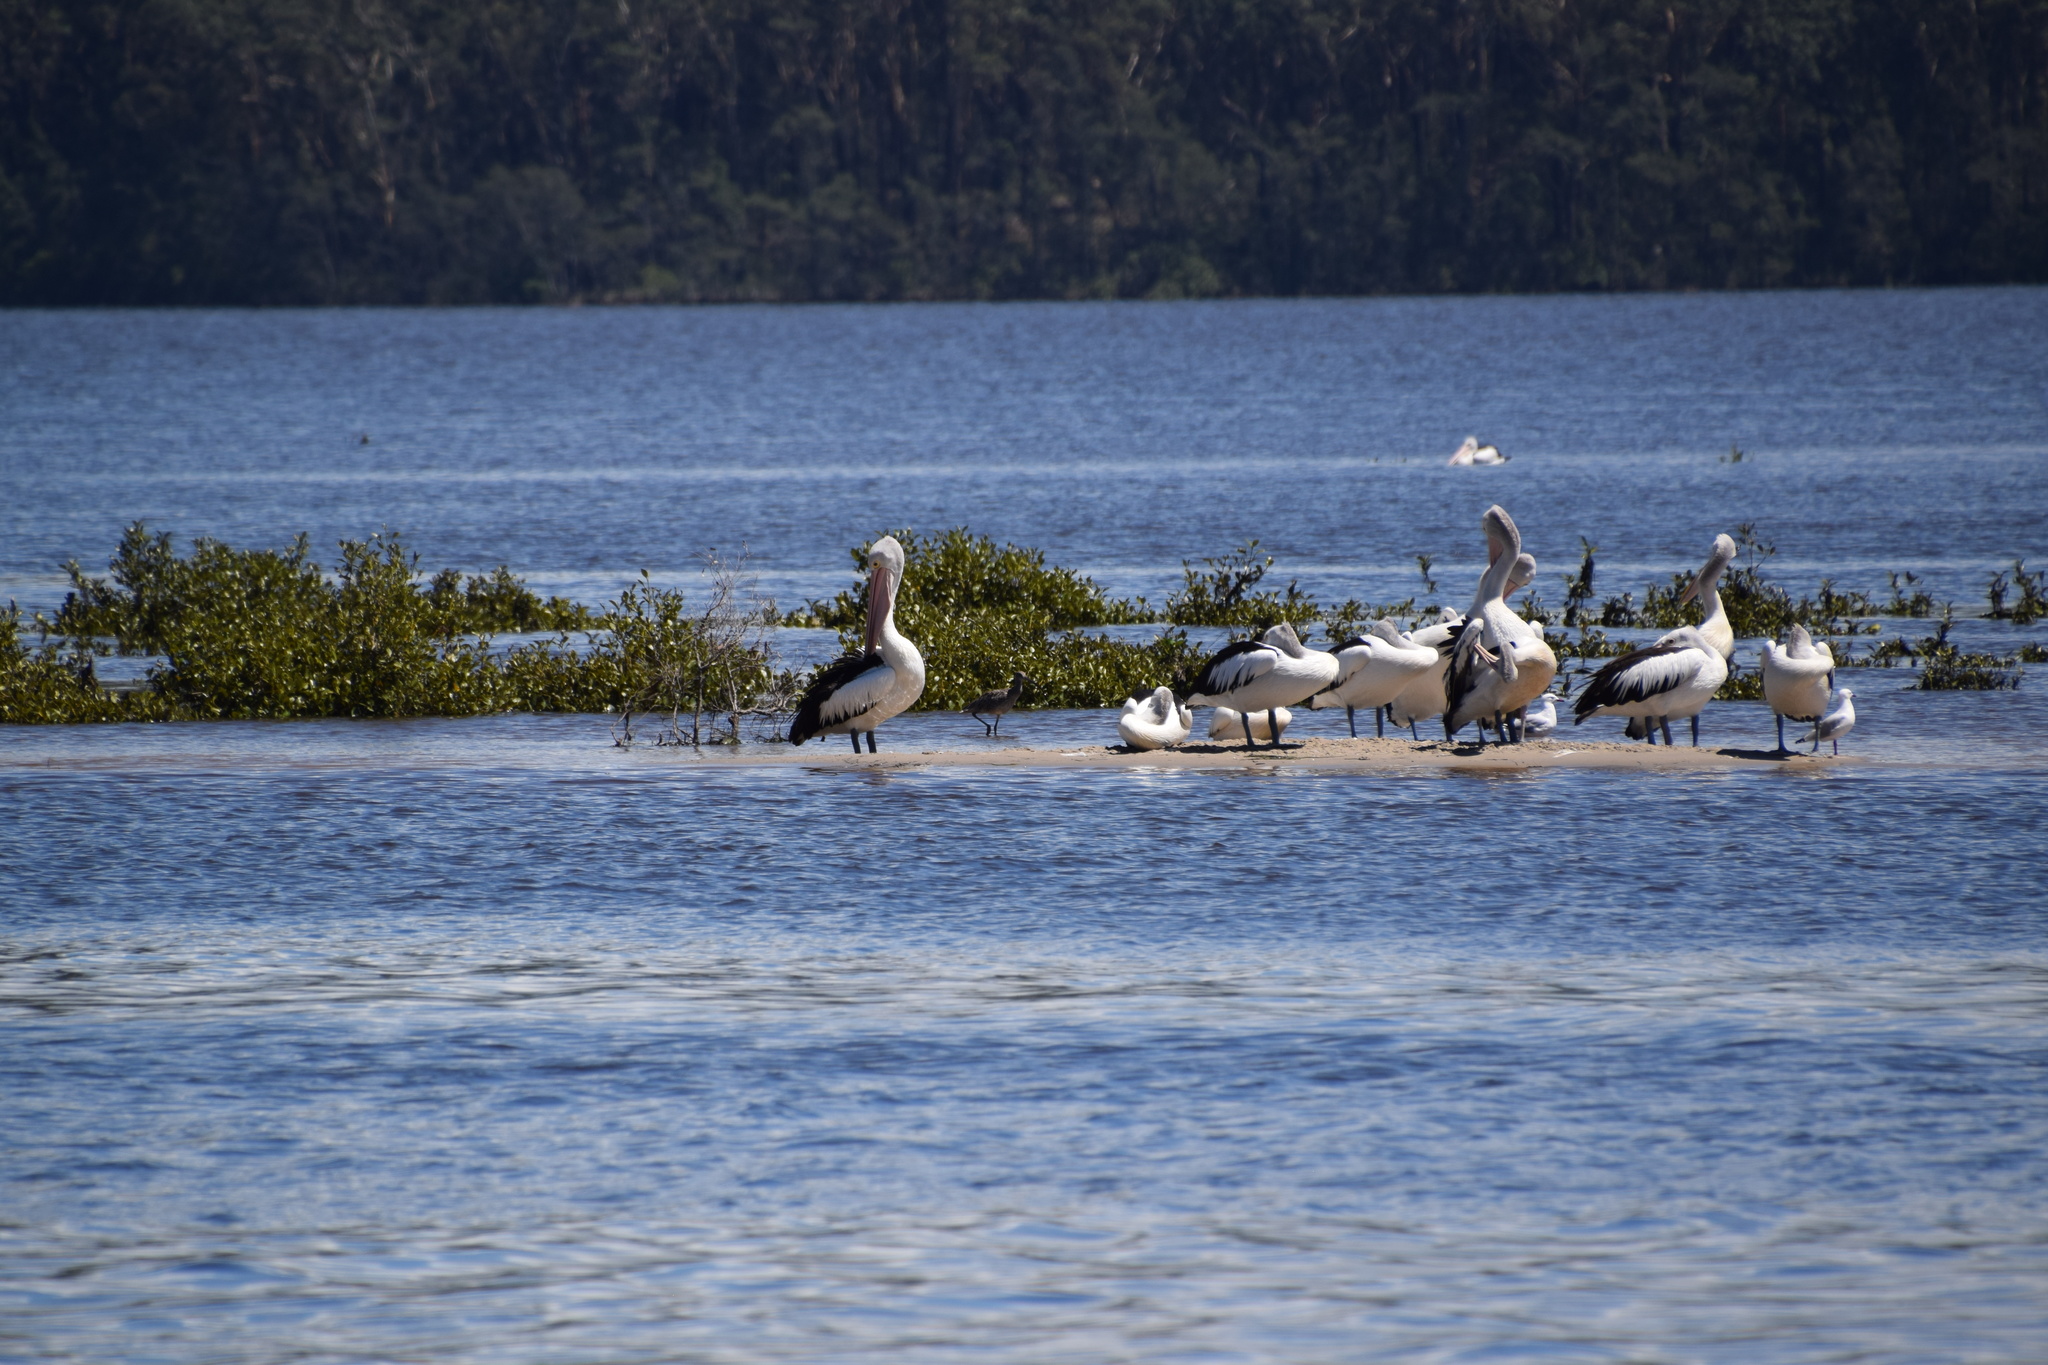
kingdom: Animalia
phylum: Chordata
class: Aves
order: Pelecaniformes
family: Pelecanidae
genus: Pelecanus
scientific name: Pelecanus conspicillatus
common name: Australian pelican
